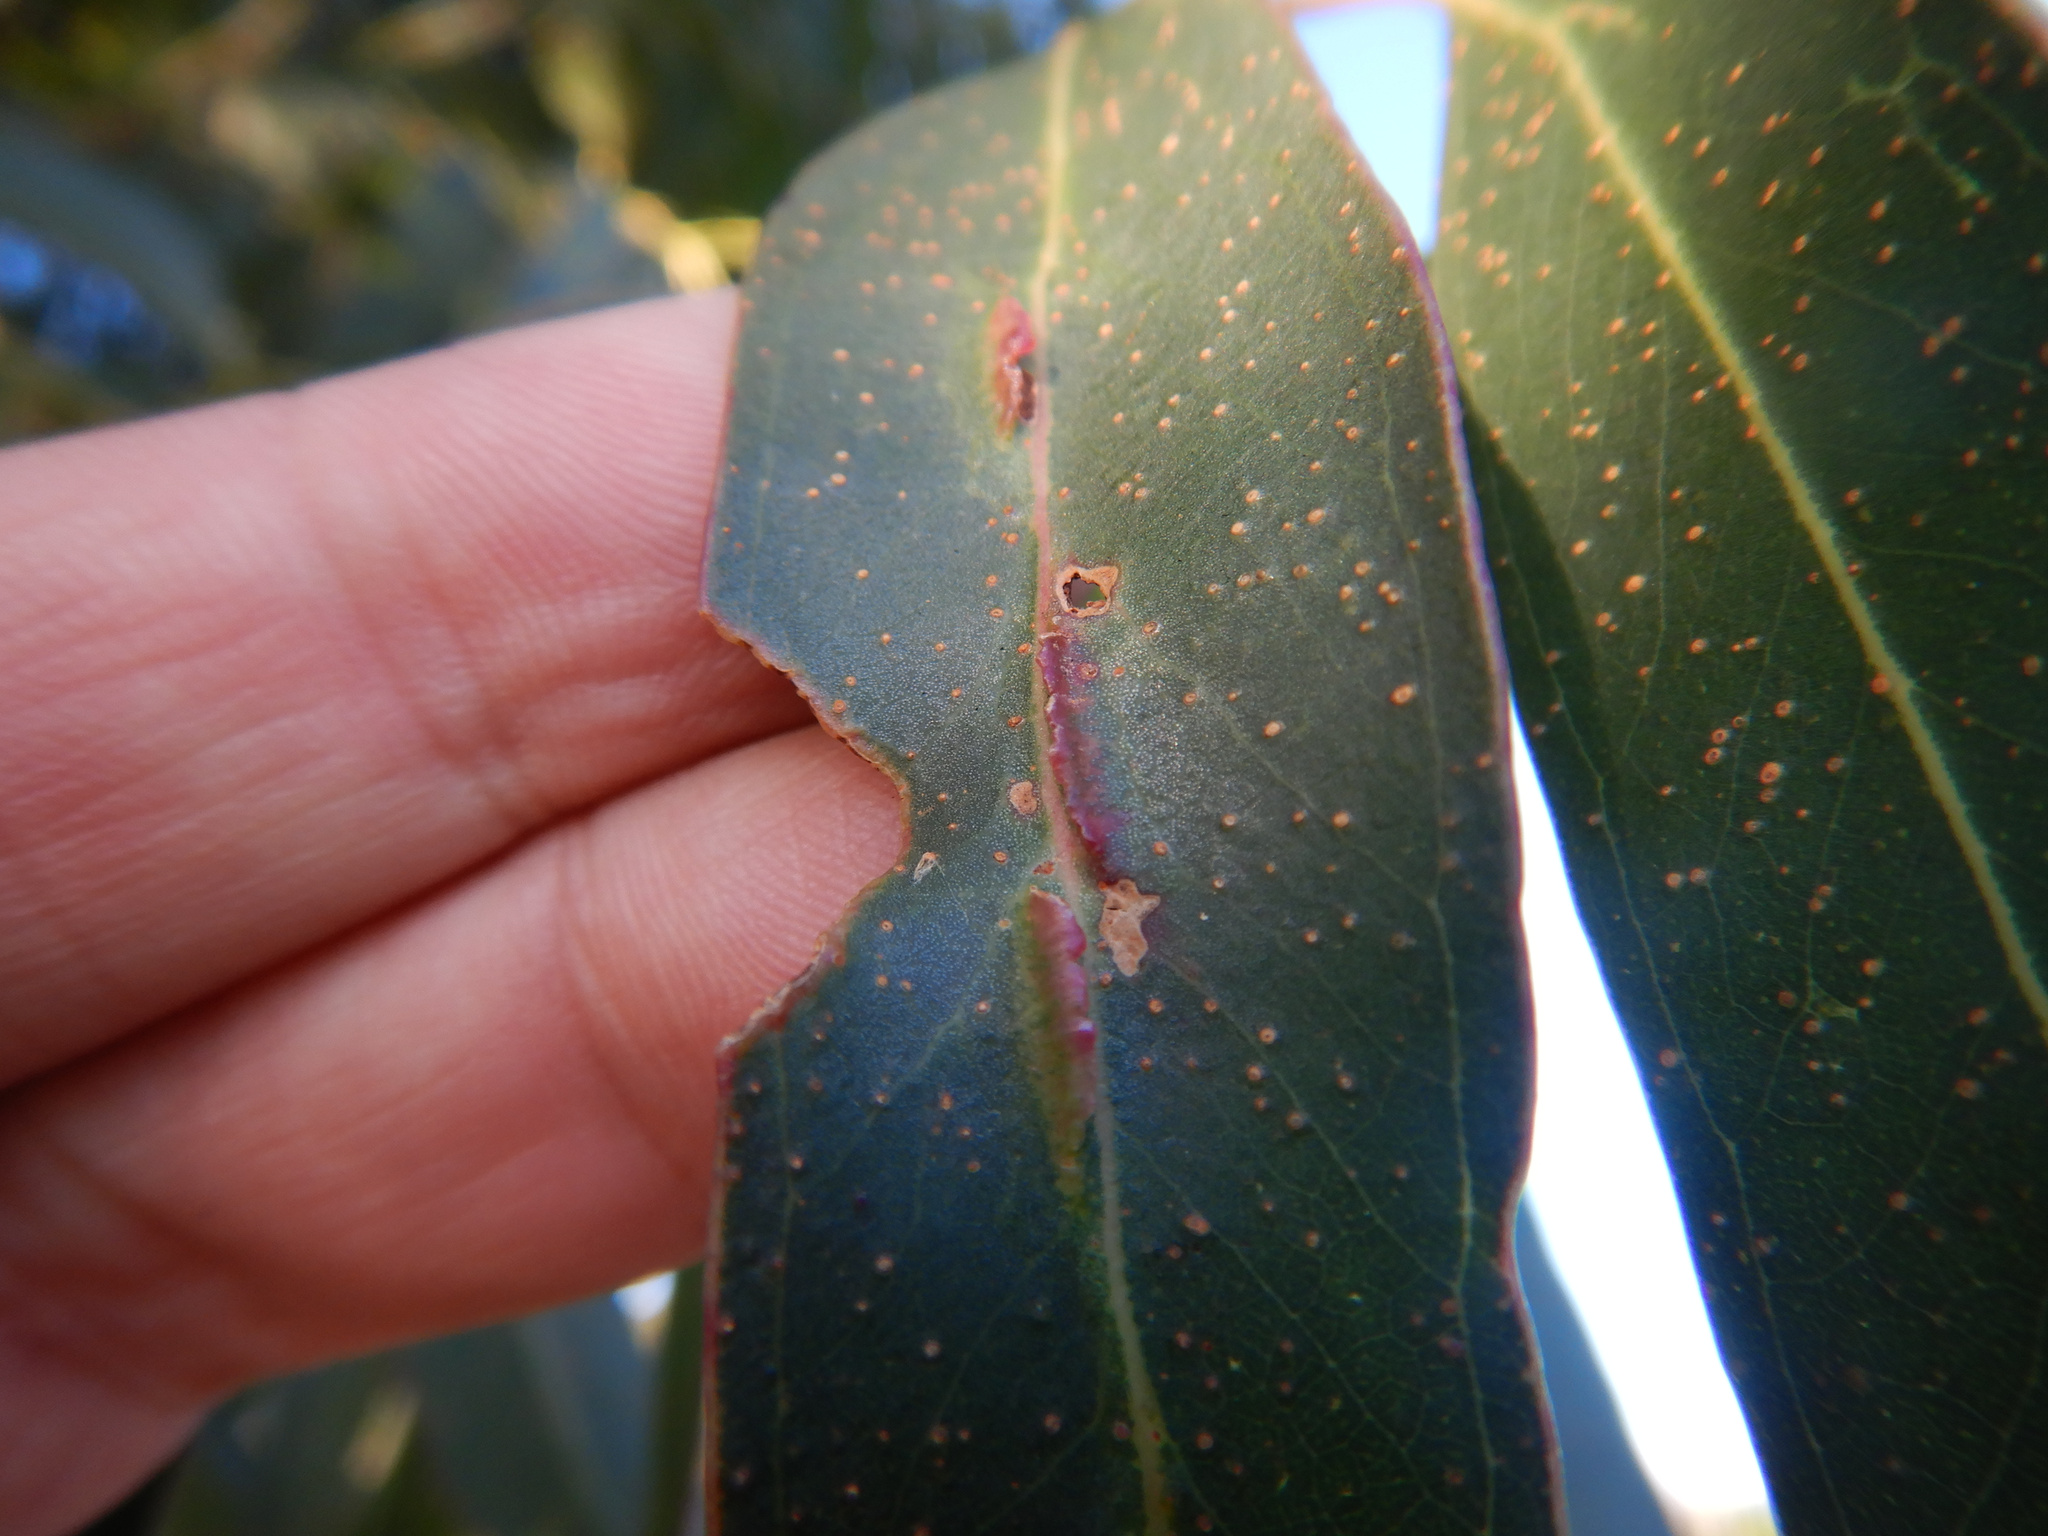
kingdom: Animalia
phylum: Arthropoda
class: Insecta
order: Hymenoptera
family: Pteromalidae
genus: Nambouria
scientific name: Nambouria xanthops
